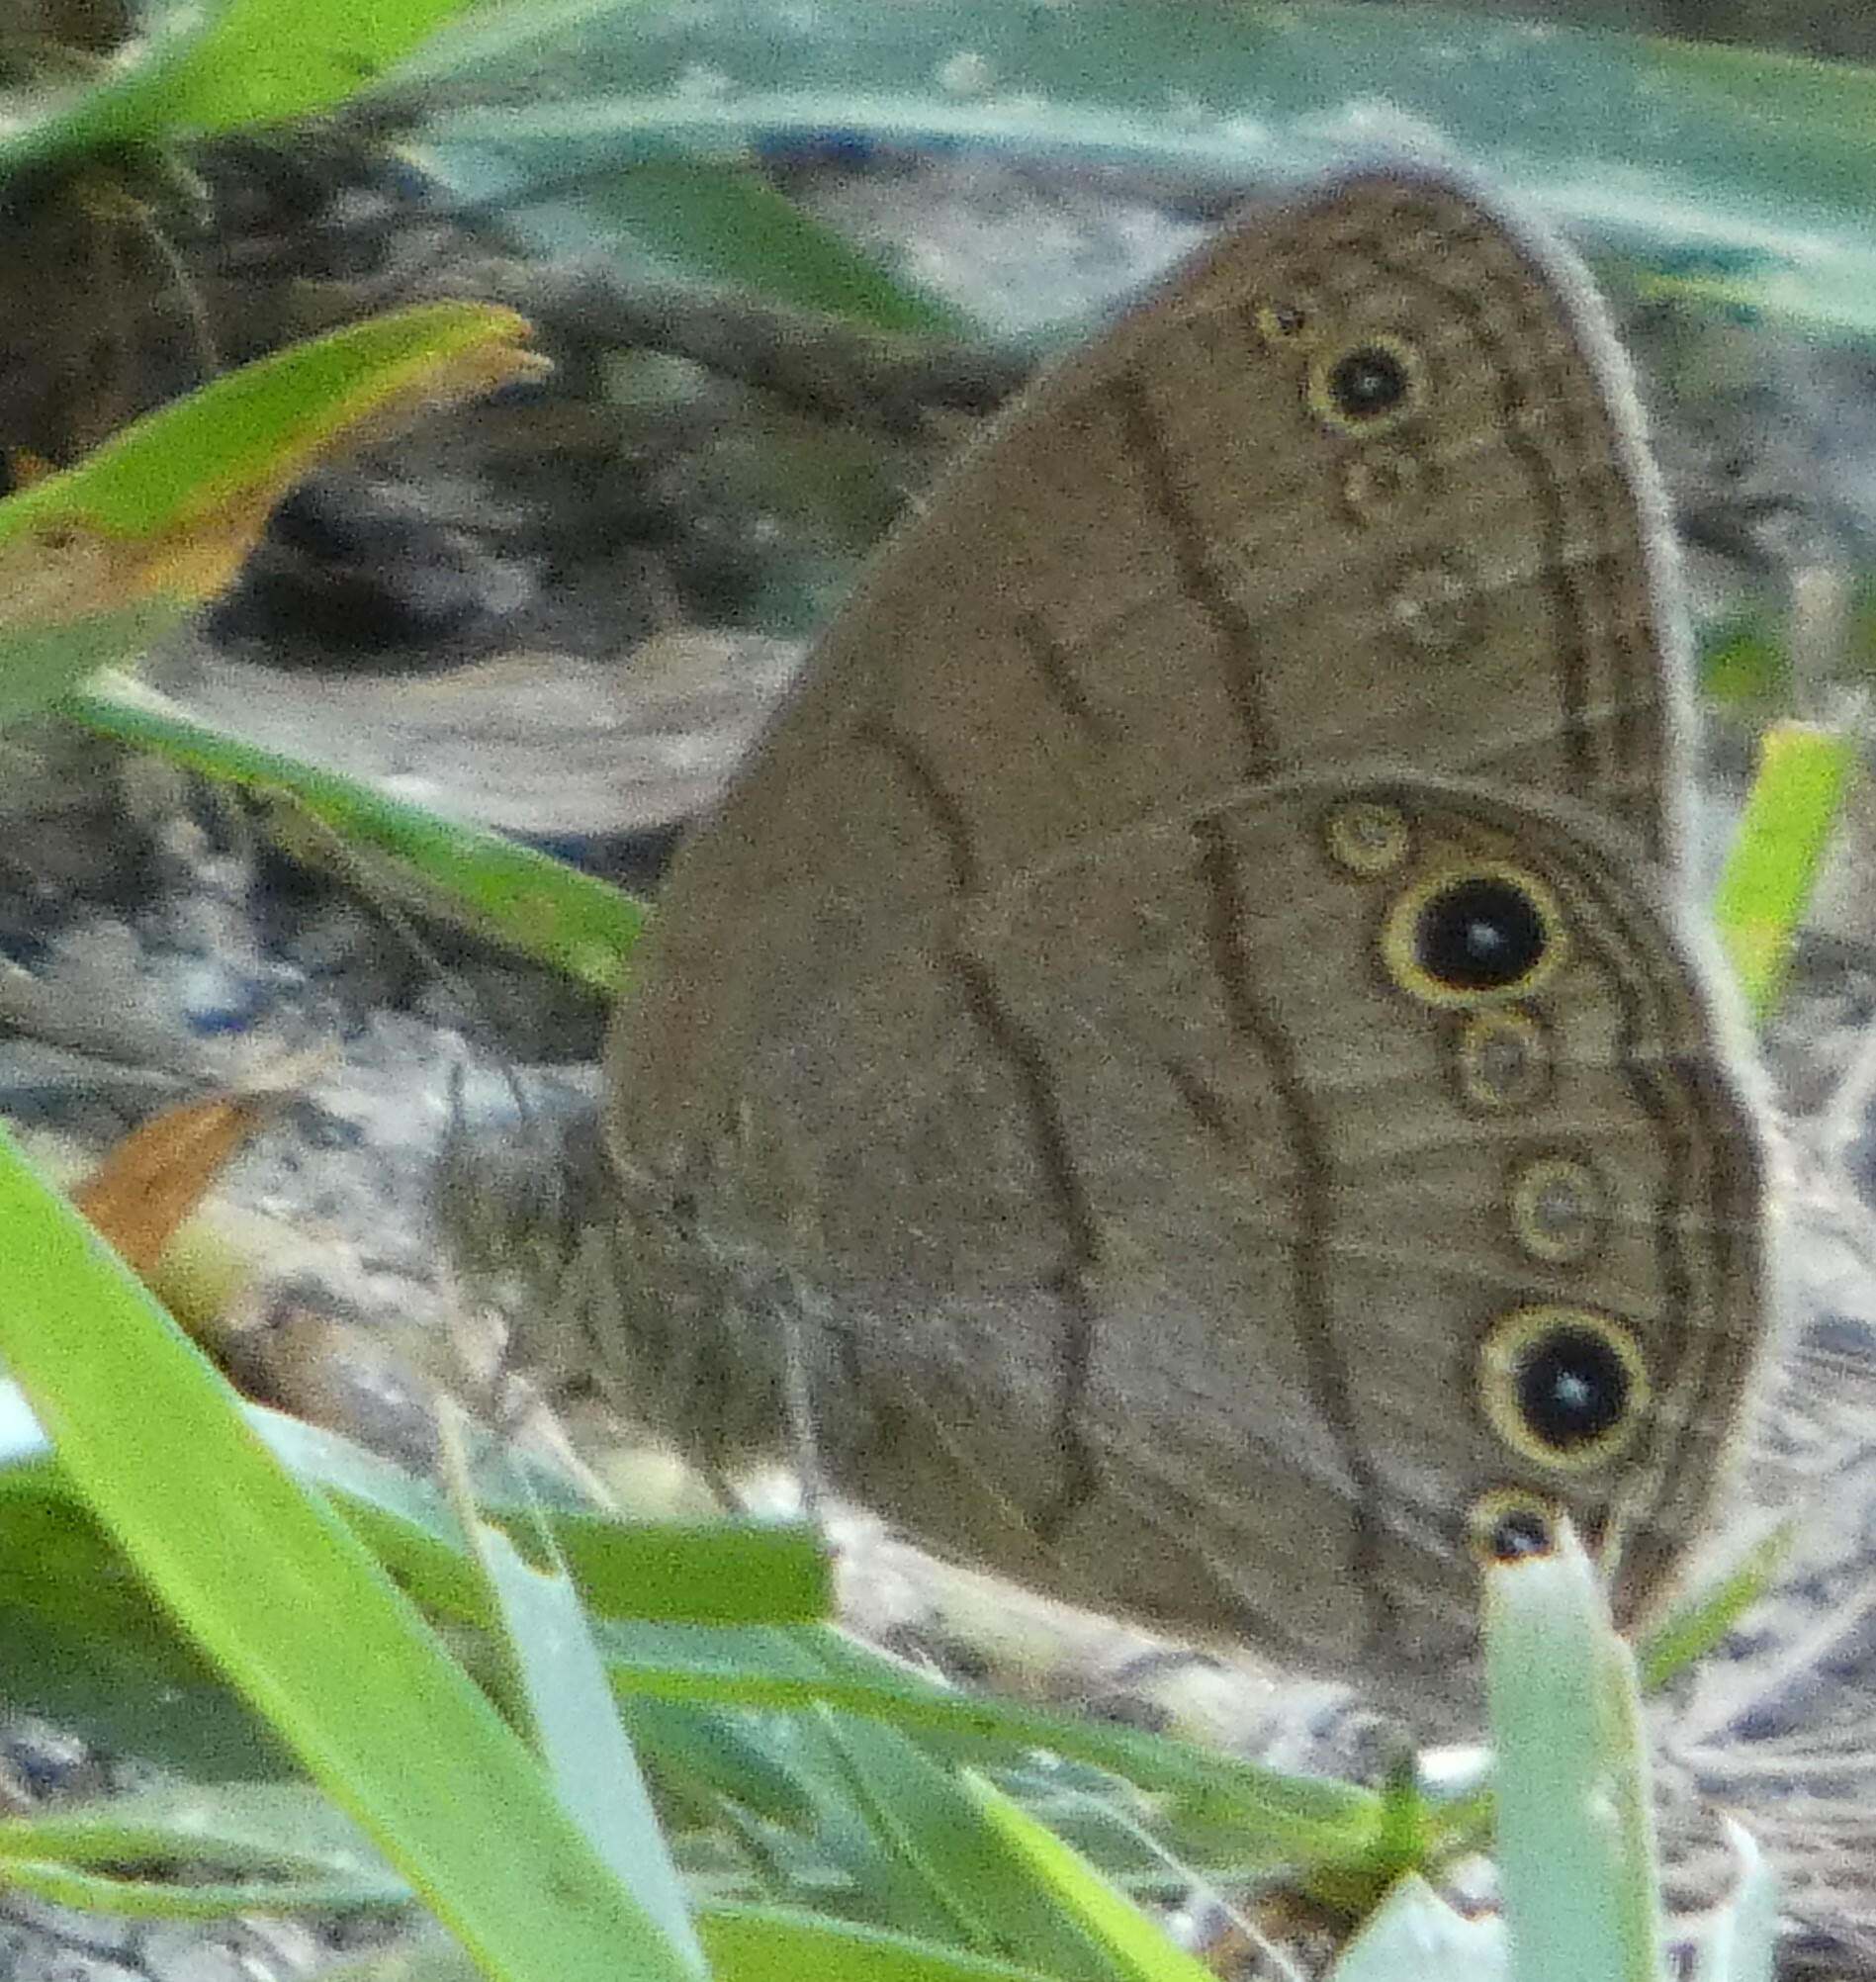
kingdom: Animalia
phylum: Arthropoda
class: Insecta
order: Lepidoptera
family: Nymphalidae
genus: Hermeuptychia
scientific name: Hermeuptychia hermes
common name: Hermes satyr
